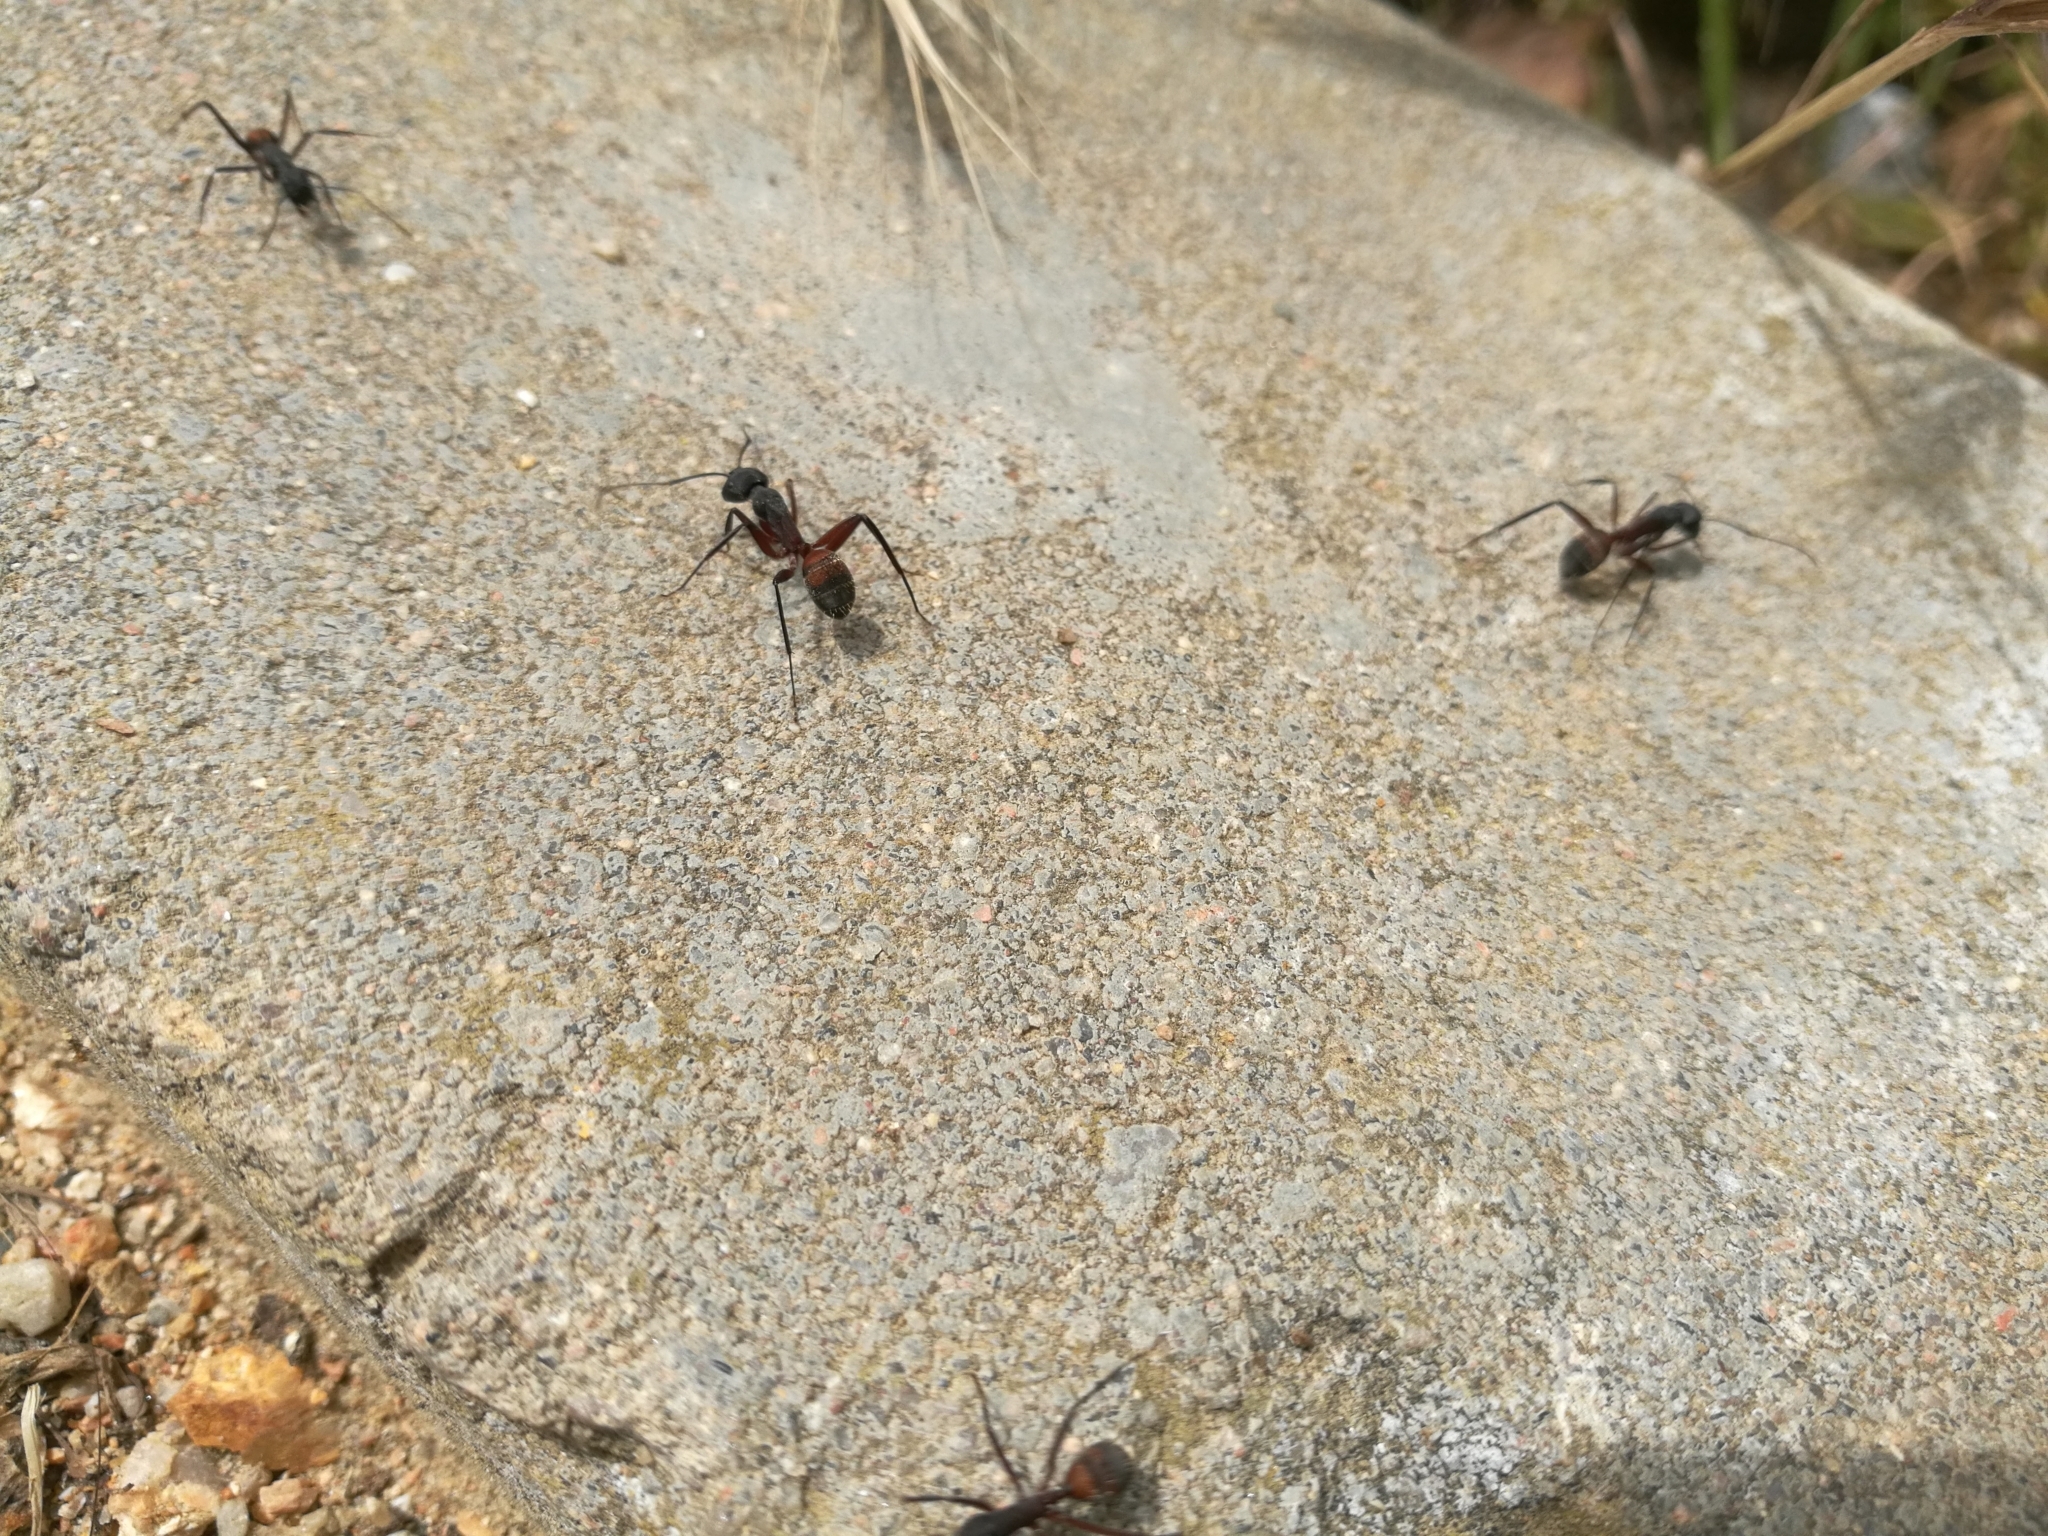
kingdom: Animalia
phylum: Arthropoda
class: Insecta
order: Hymenoptera
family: Formicidae
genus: Camponotus
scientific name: Camponotus cruentatus
